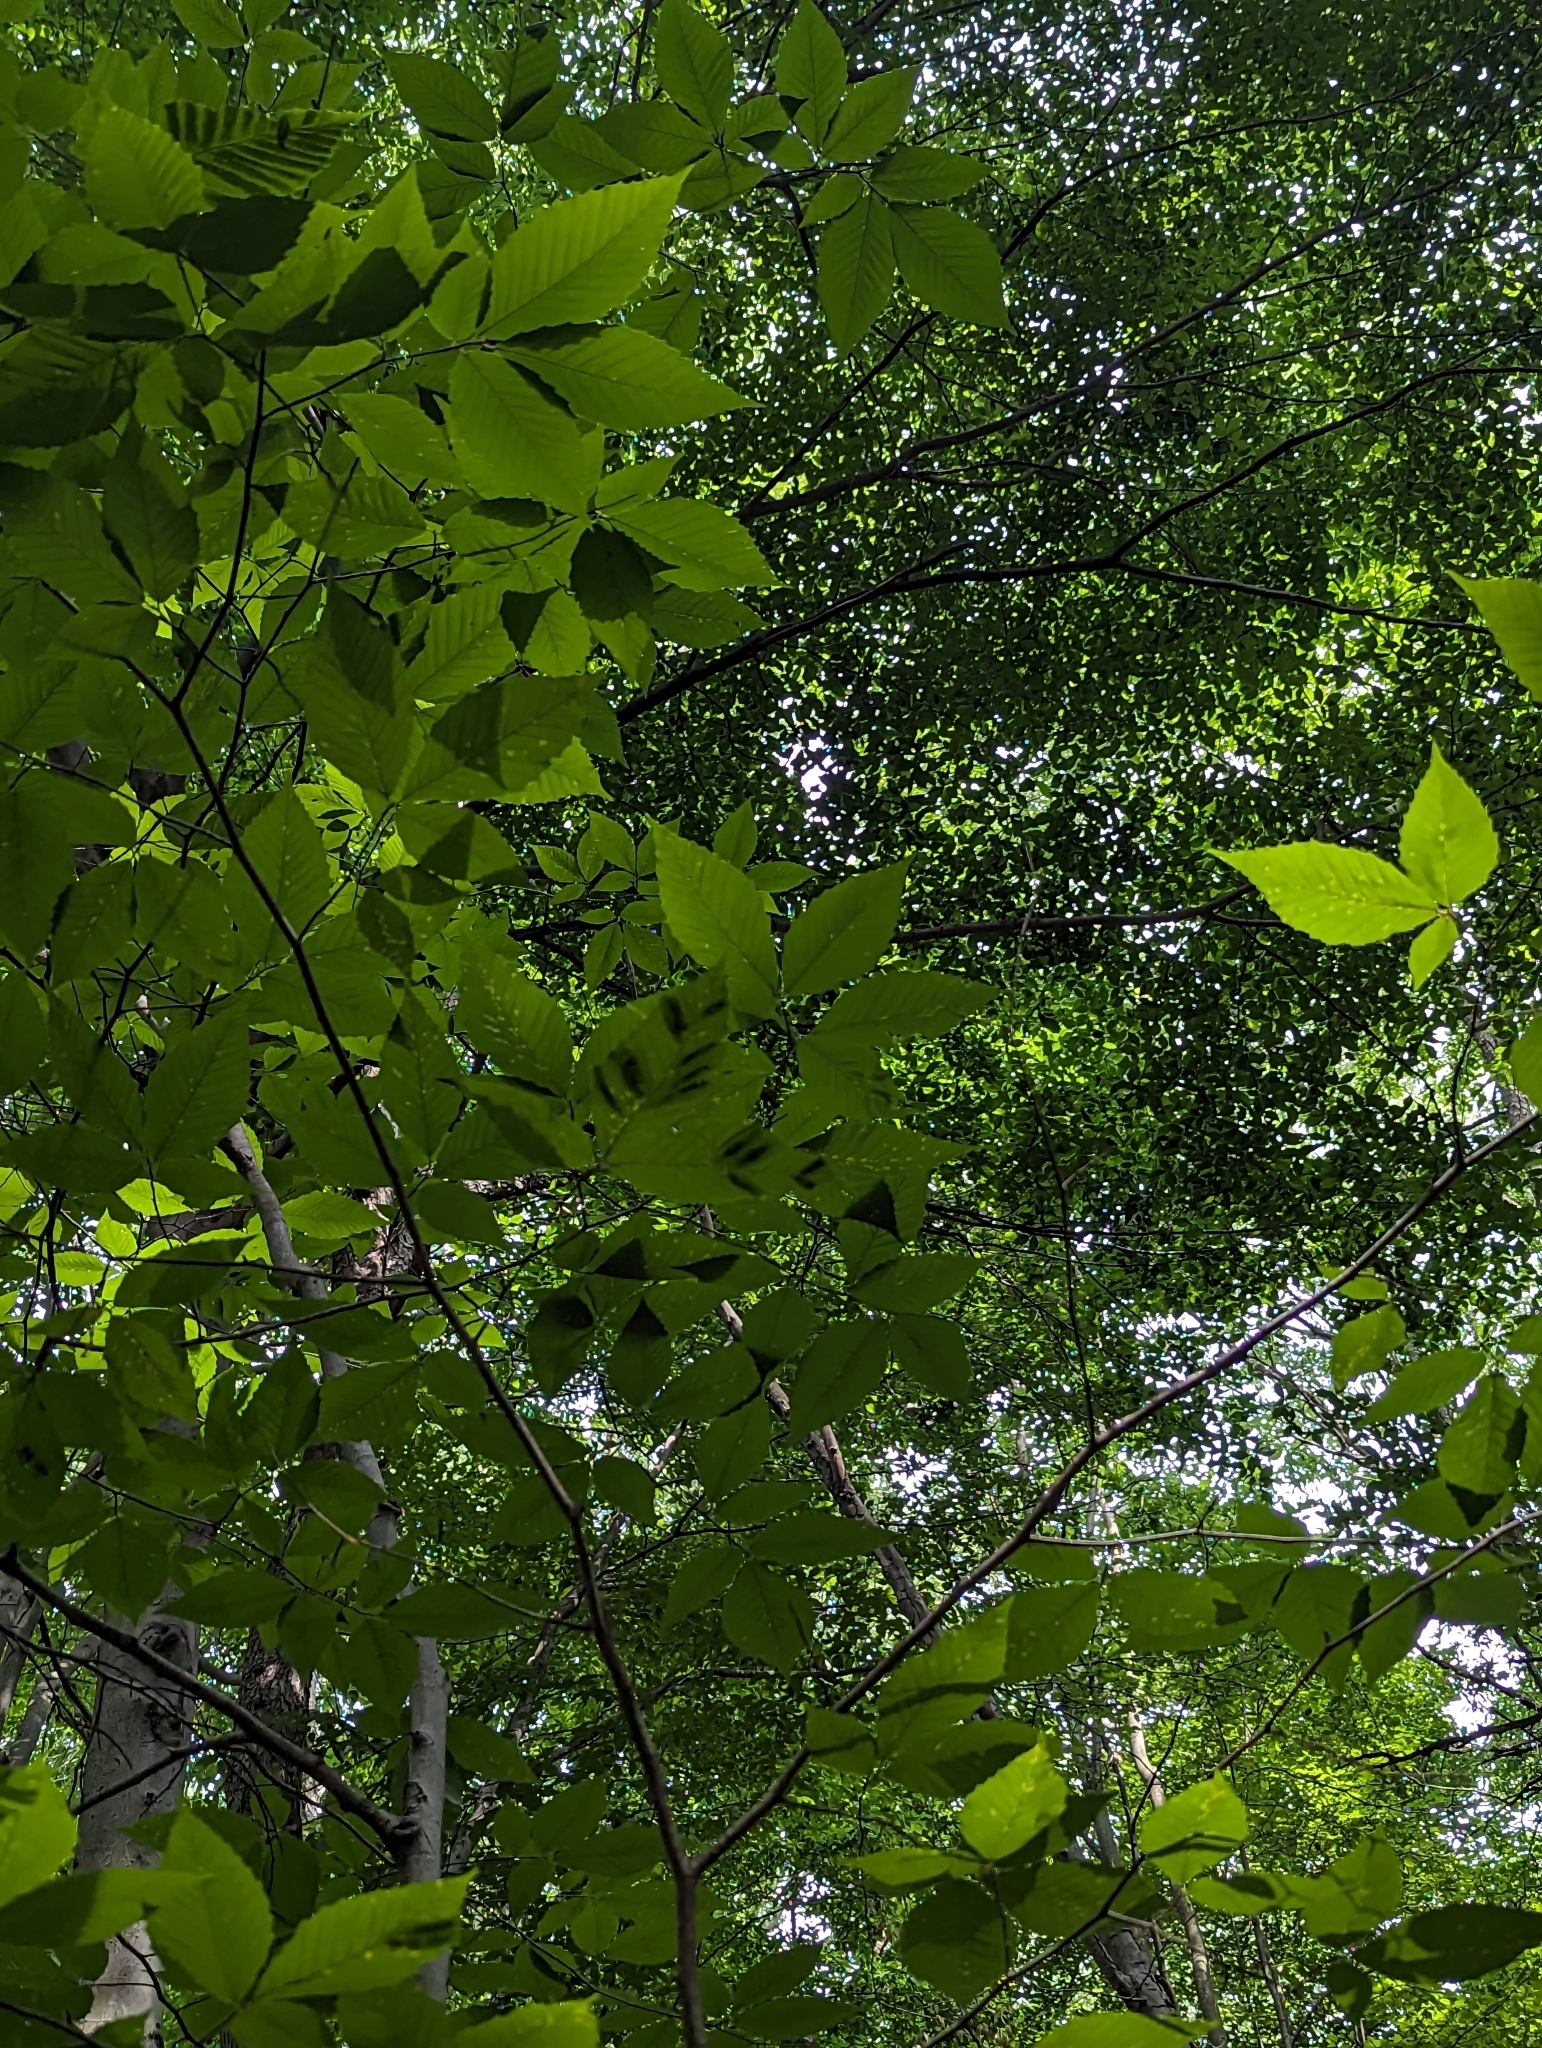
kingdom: Animalia
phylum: Nematoda
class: Chromadorea
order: Rhabditida
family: Anguinidae
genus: Litylenchus
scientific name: Litylenchus crenatae
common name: Beech leaf disease
